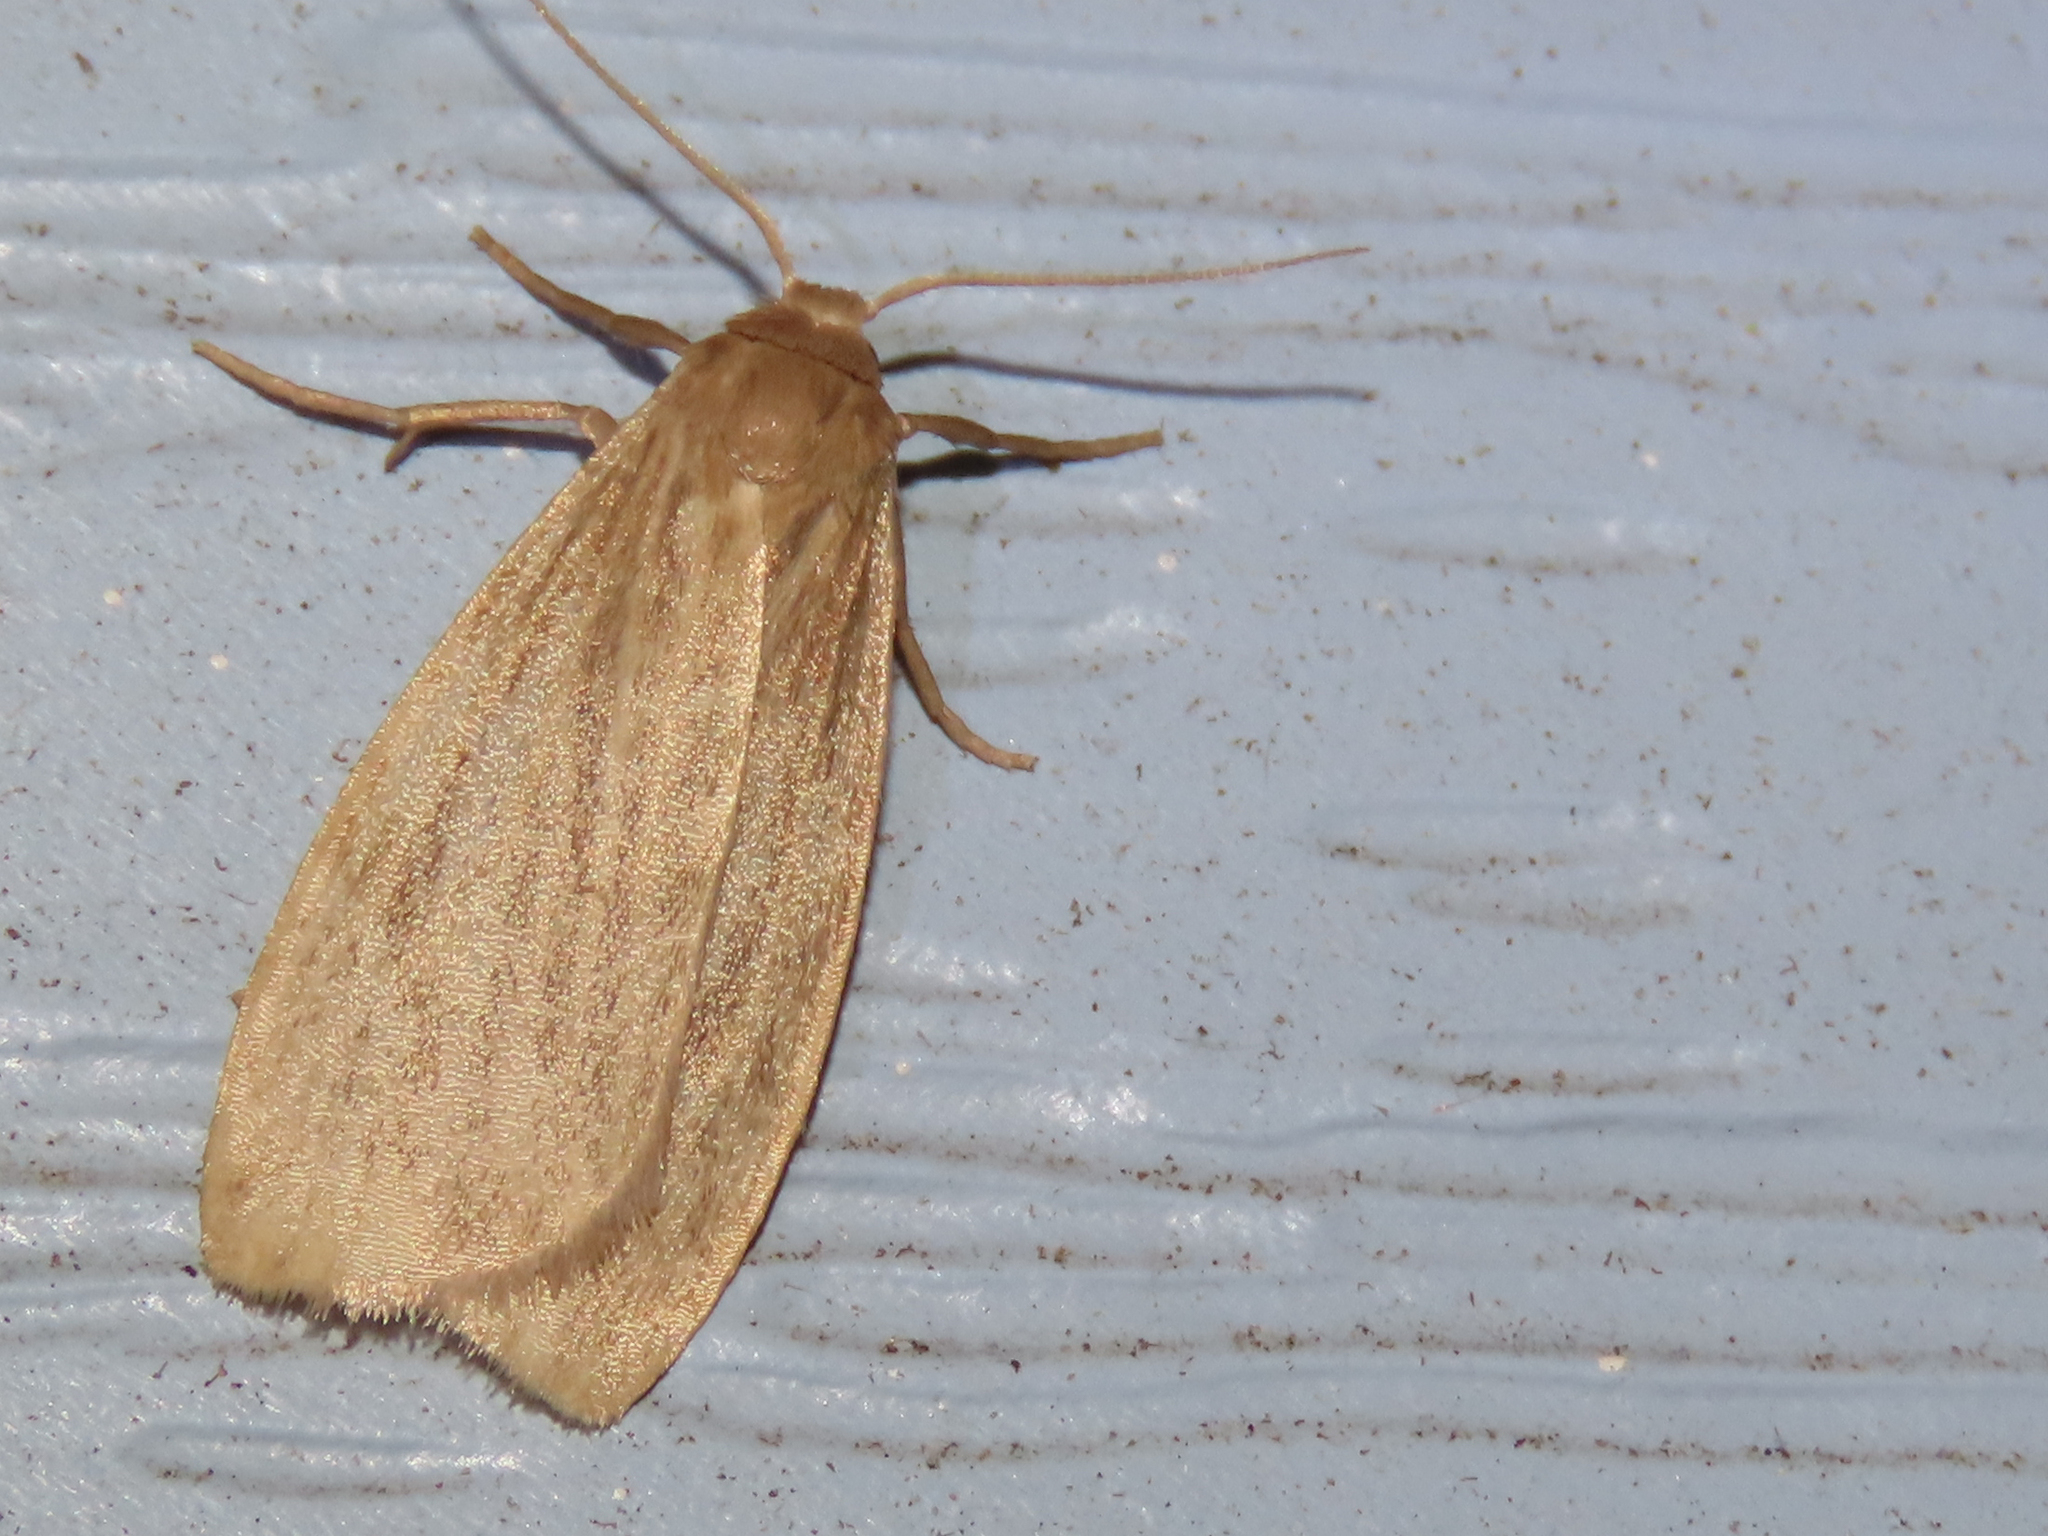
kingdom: Animalia
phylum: Arthropoda
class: Insecta
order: Lepidoptera
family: Erebidae
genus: Crambidia
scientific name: Crambidia pallida
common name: Pale lichen moth
